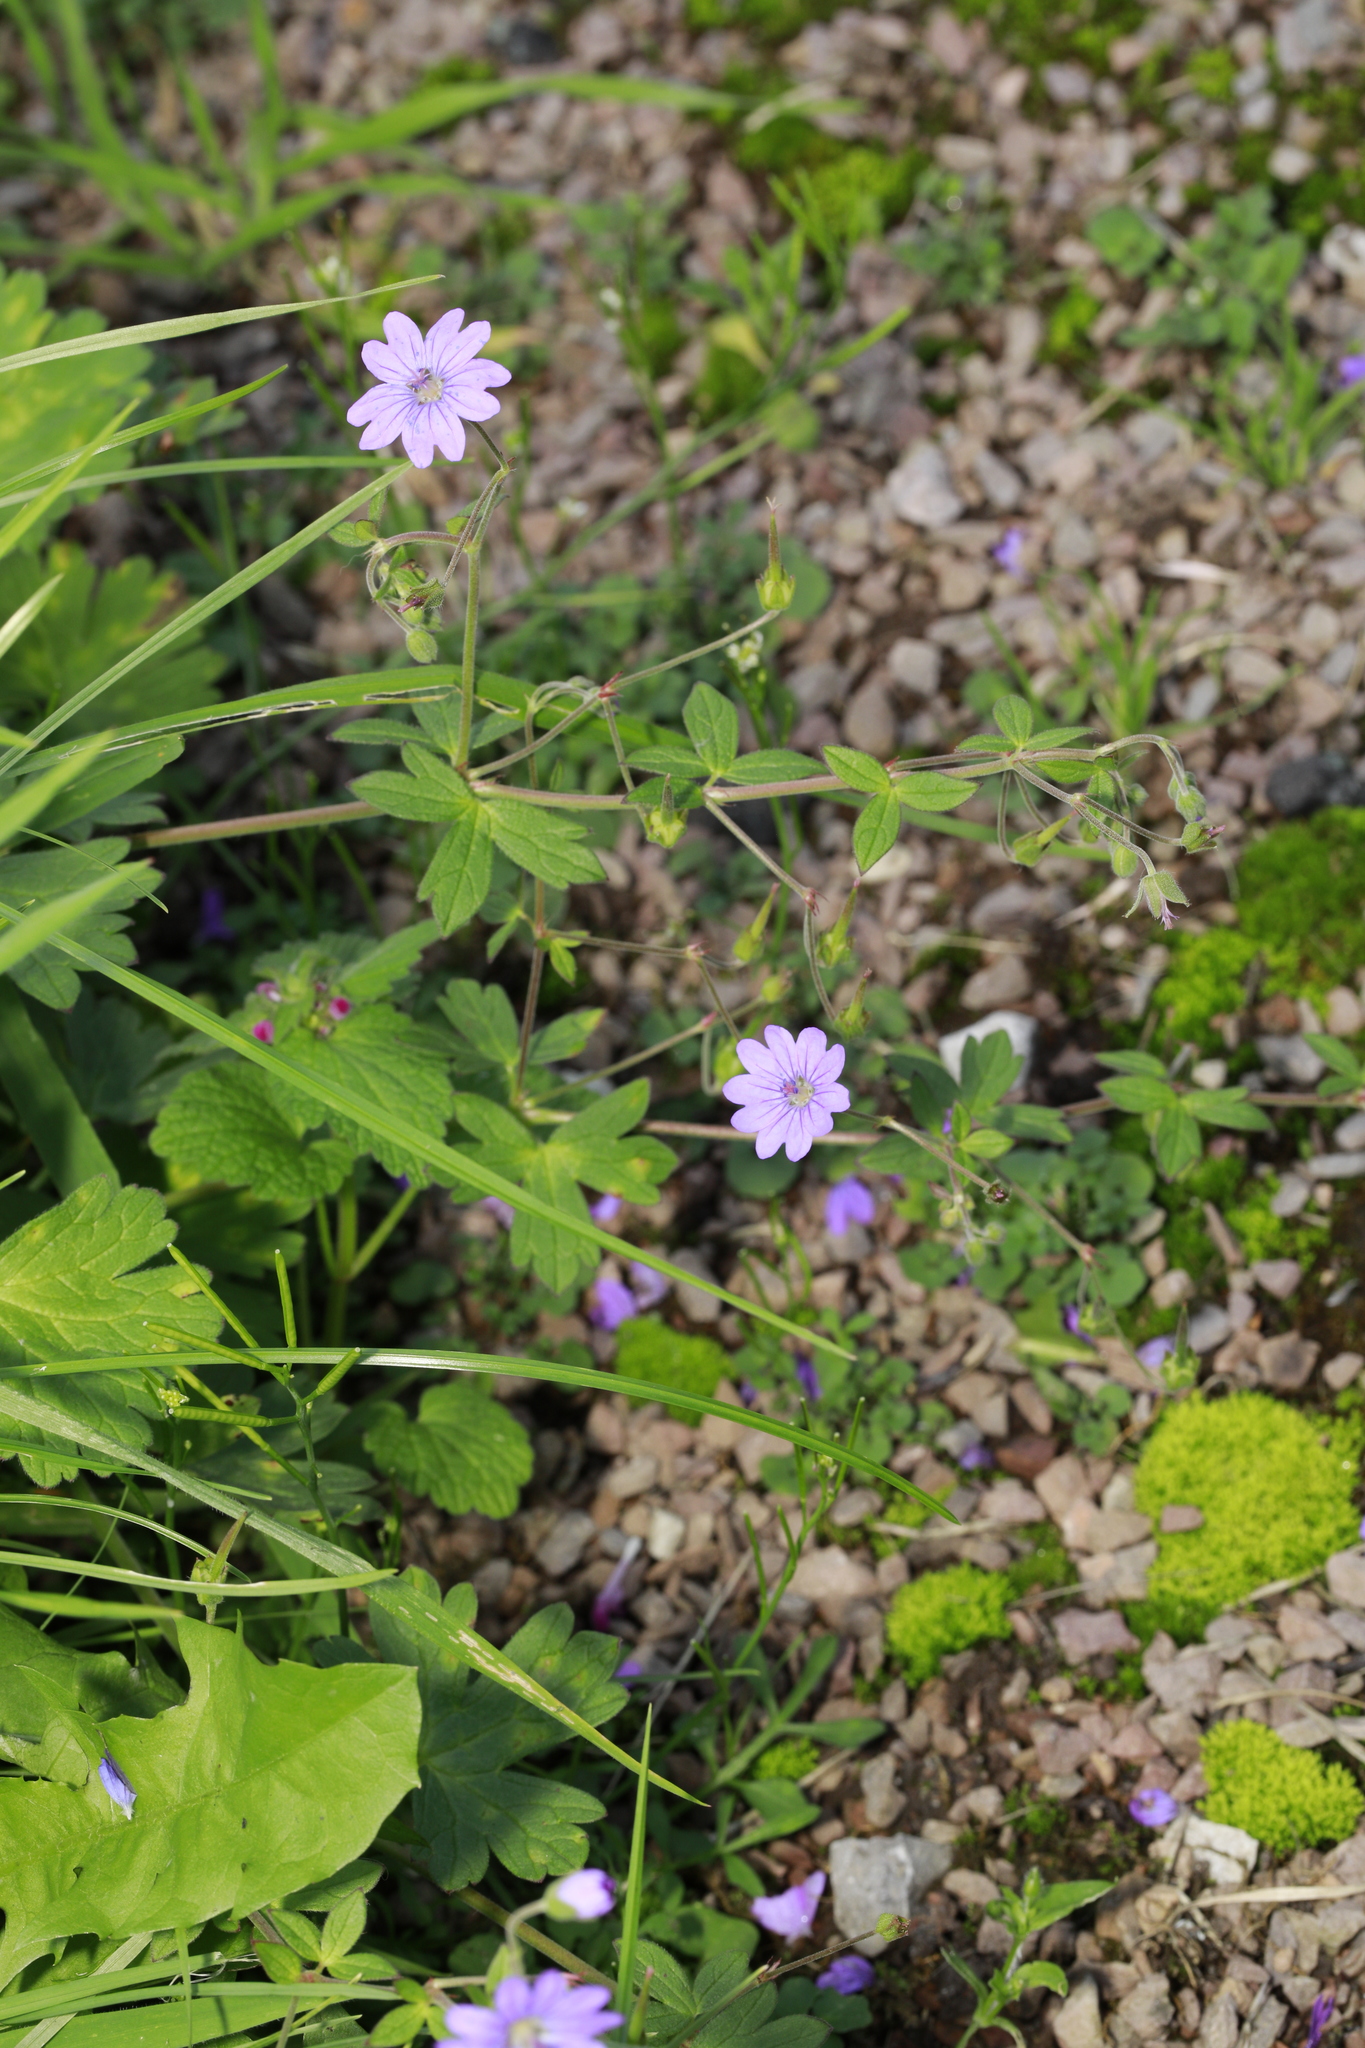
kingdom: Plantae
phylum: Tracheophyta
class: Magnoliopsida
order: Geraniales
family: Geraniaceae
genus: Geranium
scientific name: Geranium pyrenaicum
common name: Hedgerow crane's-bill
